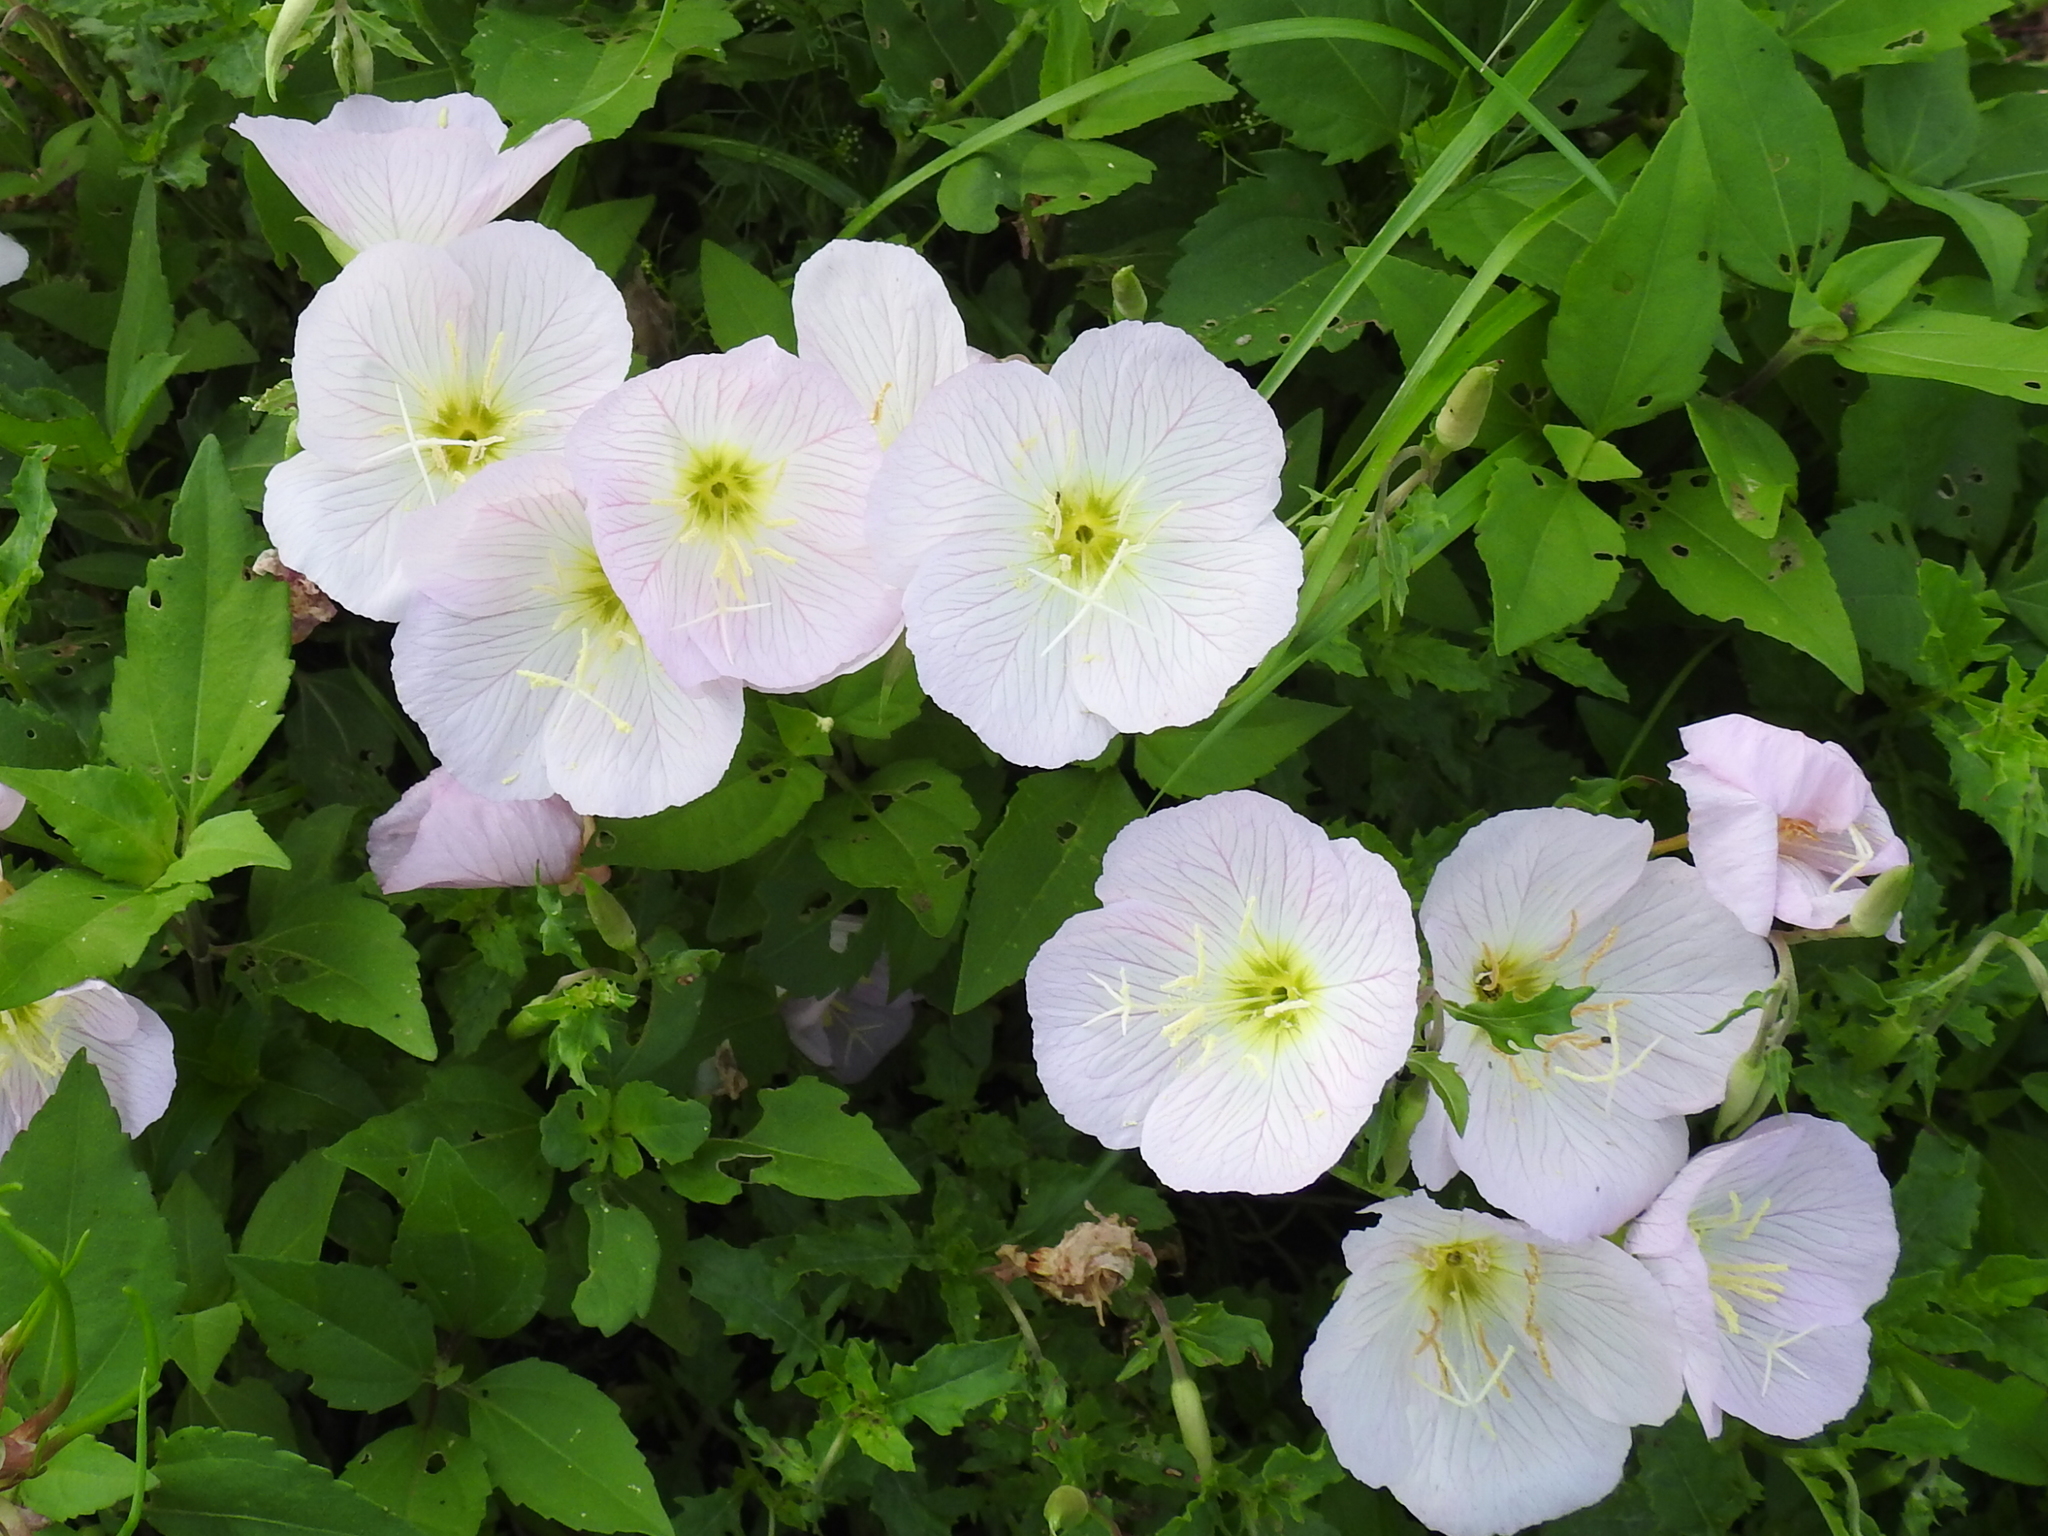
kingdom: Plantae
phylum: Tracheophyta
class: Magnoliopsida
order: Myrtales
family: Onagraceae
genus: Oenothera
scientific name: Oenothera speciosa
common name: White evening-primrose
